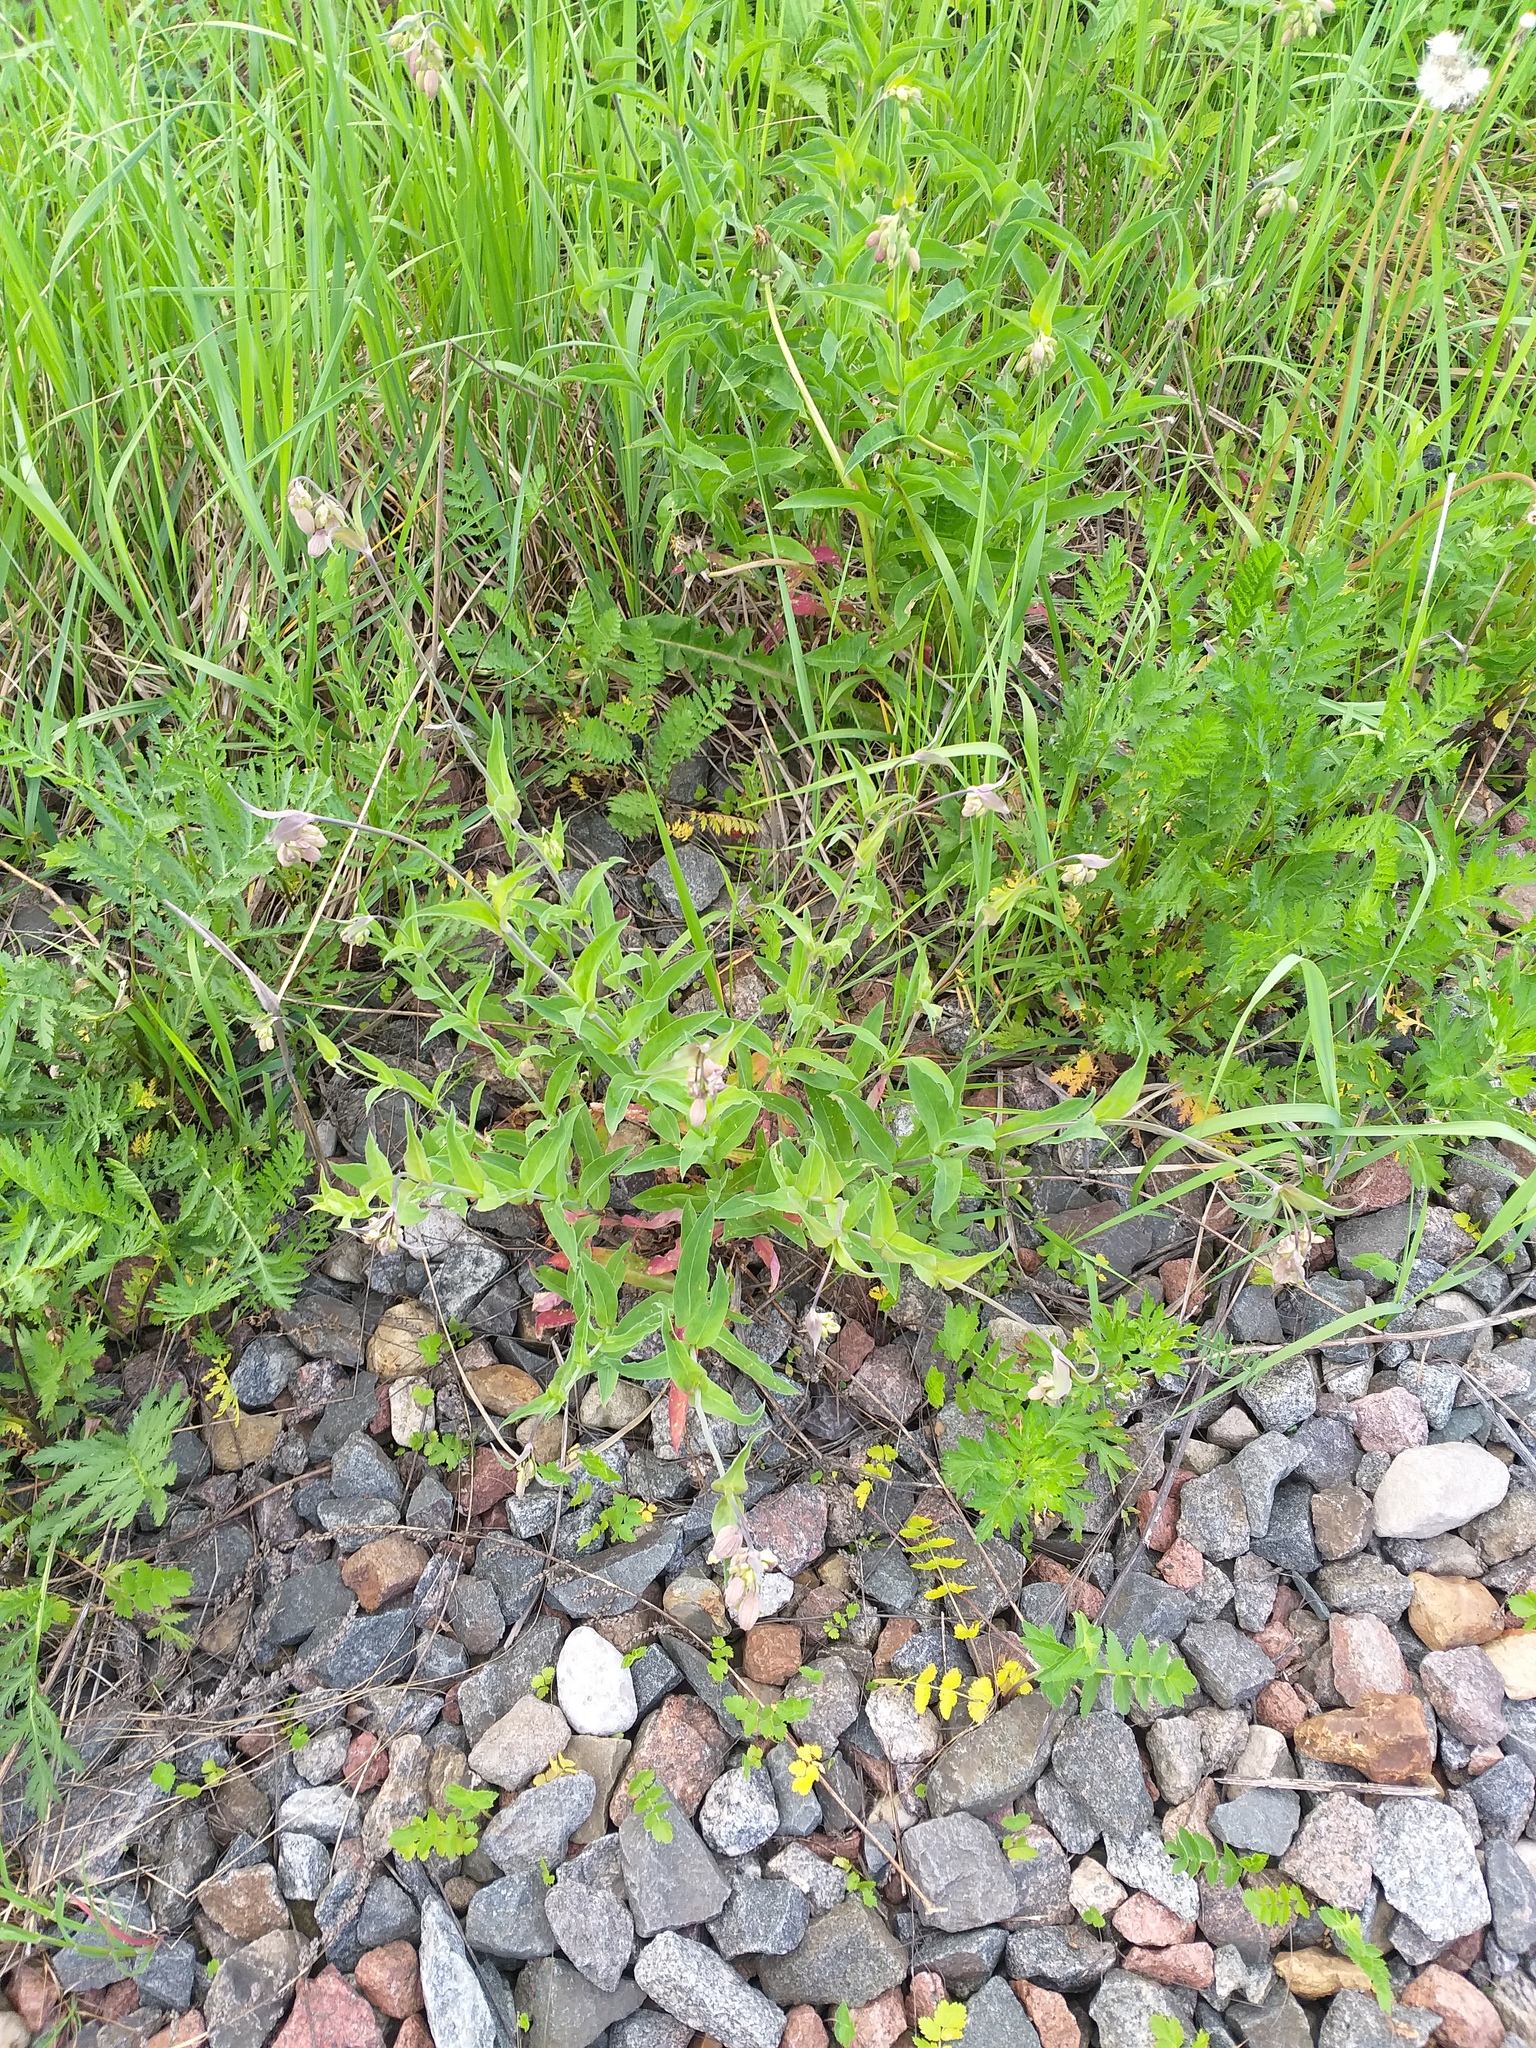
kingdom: Plantae
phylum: Tracheophyta
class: Magnoliopsida
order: Caryophyllales
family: Caryophyllaceae
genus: Silene
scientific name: Silene vulgaris
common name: Bladder campion
